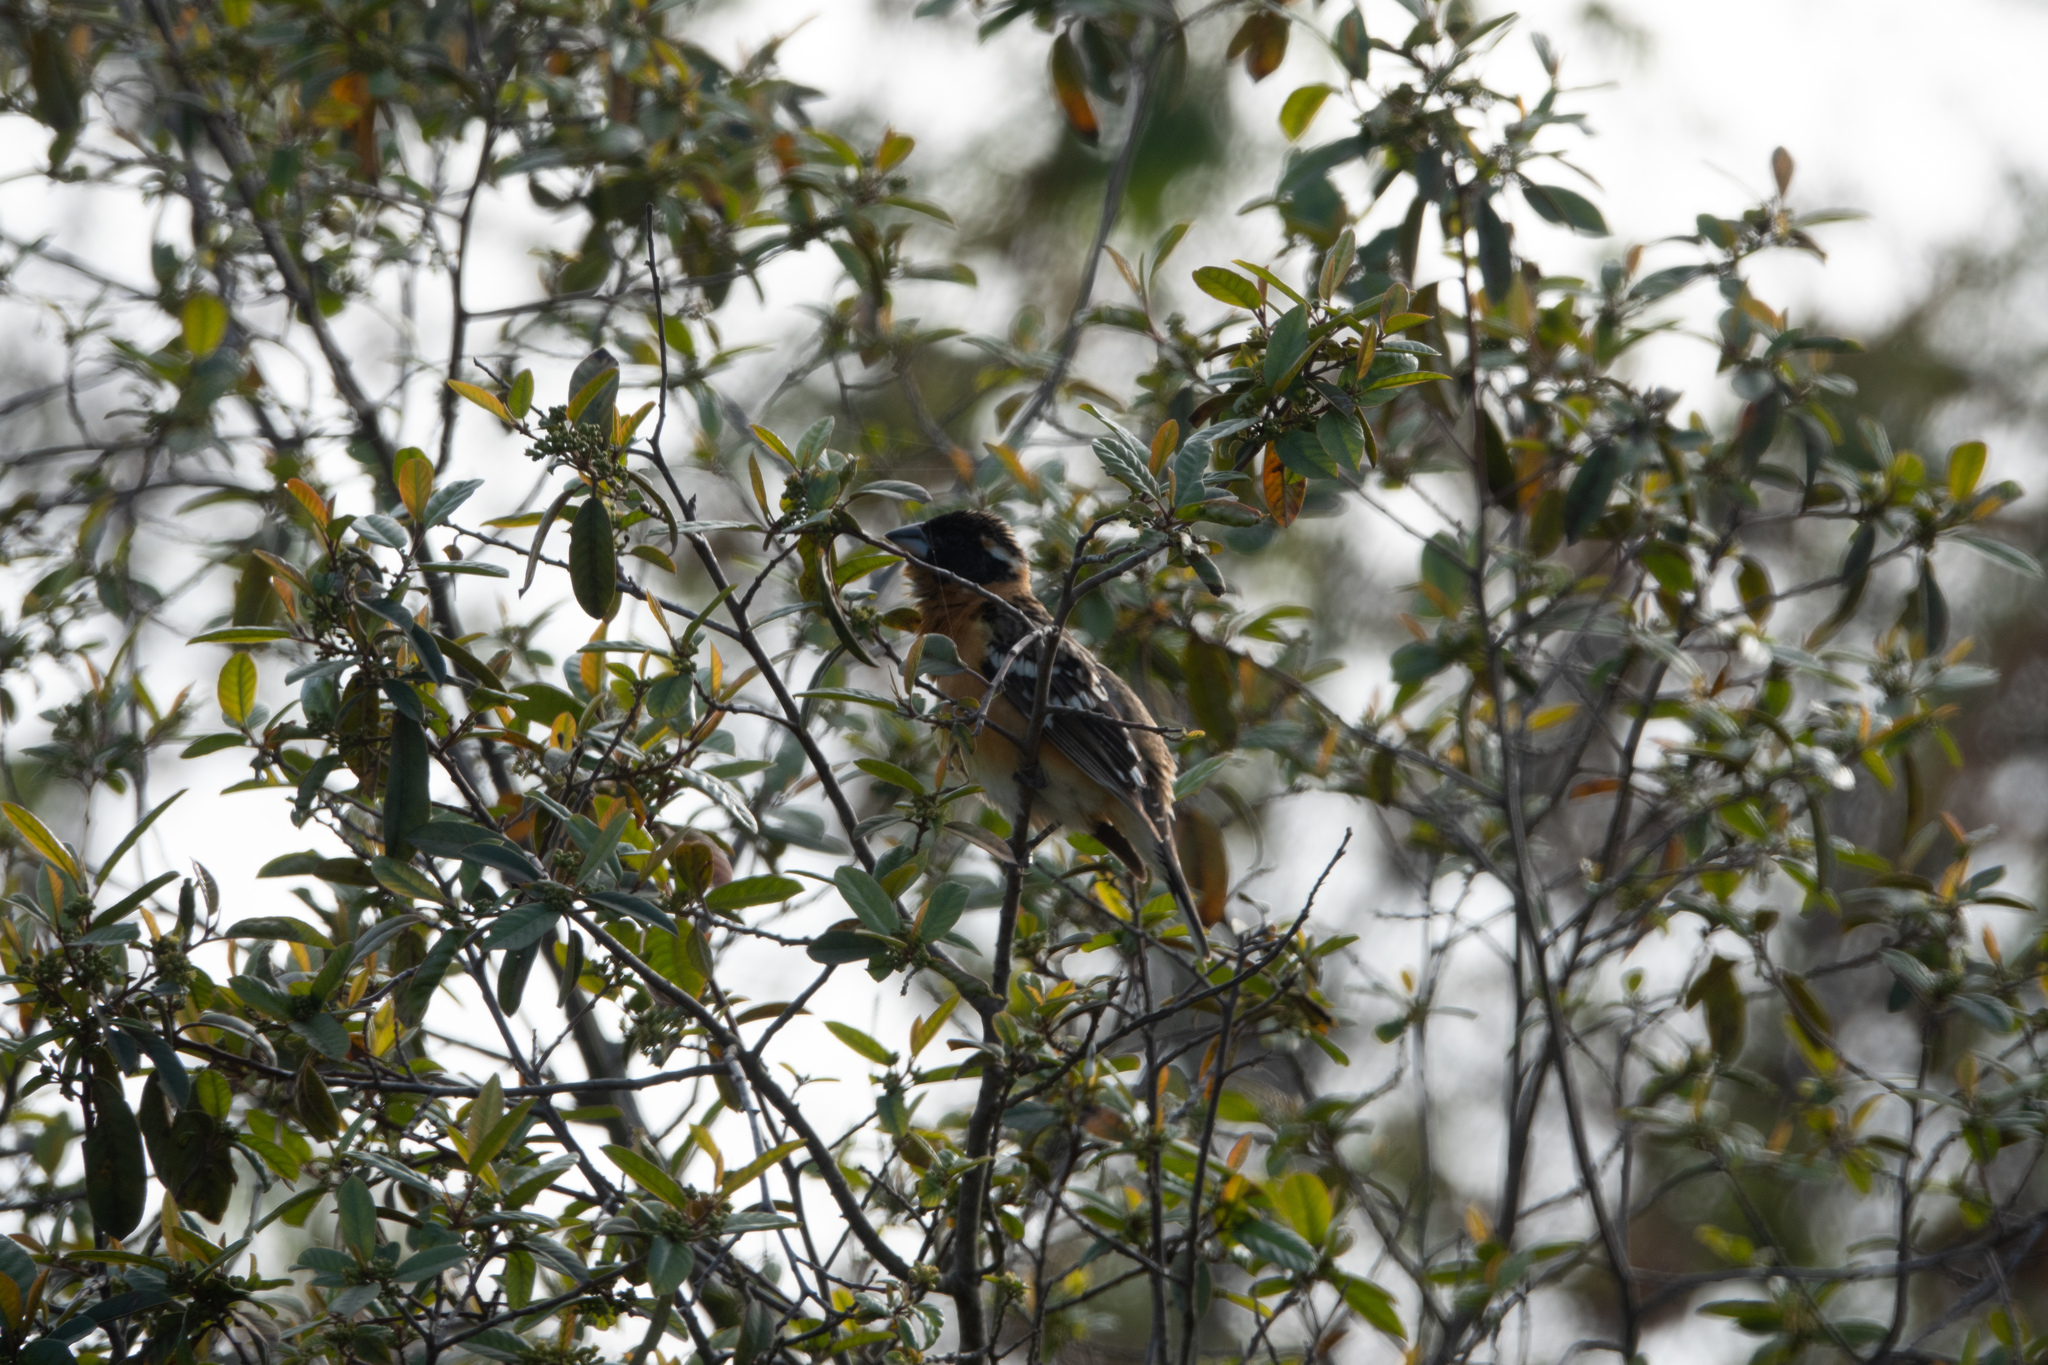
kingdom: Animalia
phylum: Chordata
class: Aves
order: Passeriformes
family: Cardinalidae
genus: Pheucticus
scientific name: Pheucticus melanocephalus
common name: Black-headed grosbeak
